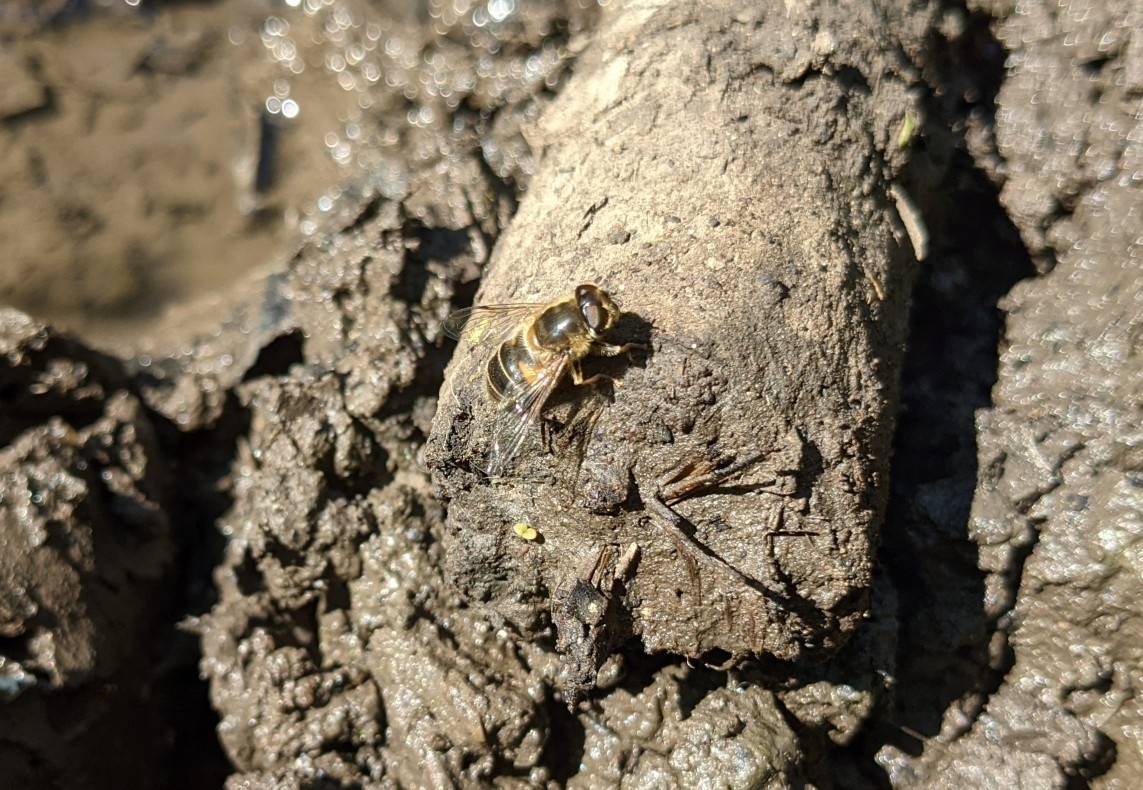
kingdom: Animalia
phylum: Arthropoda
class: Insecta
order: Diptera
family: Syrphidae
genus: Eristalis
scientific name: Eristalis pertinax
